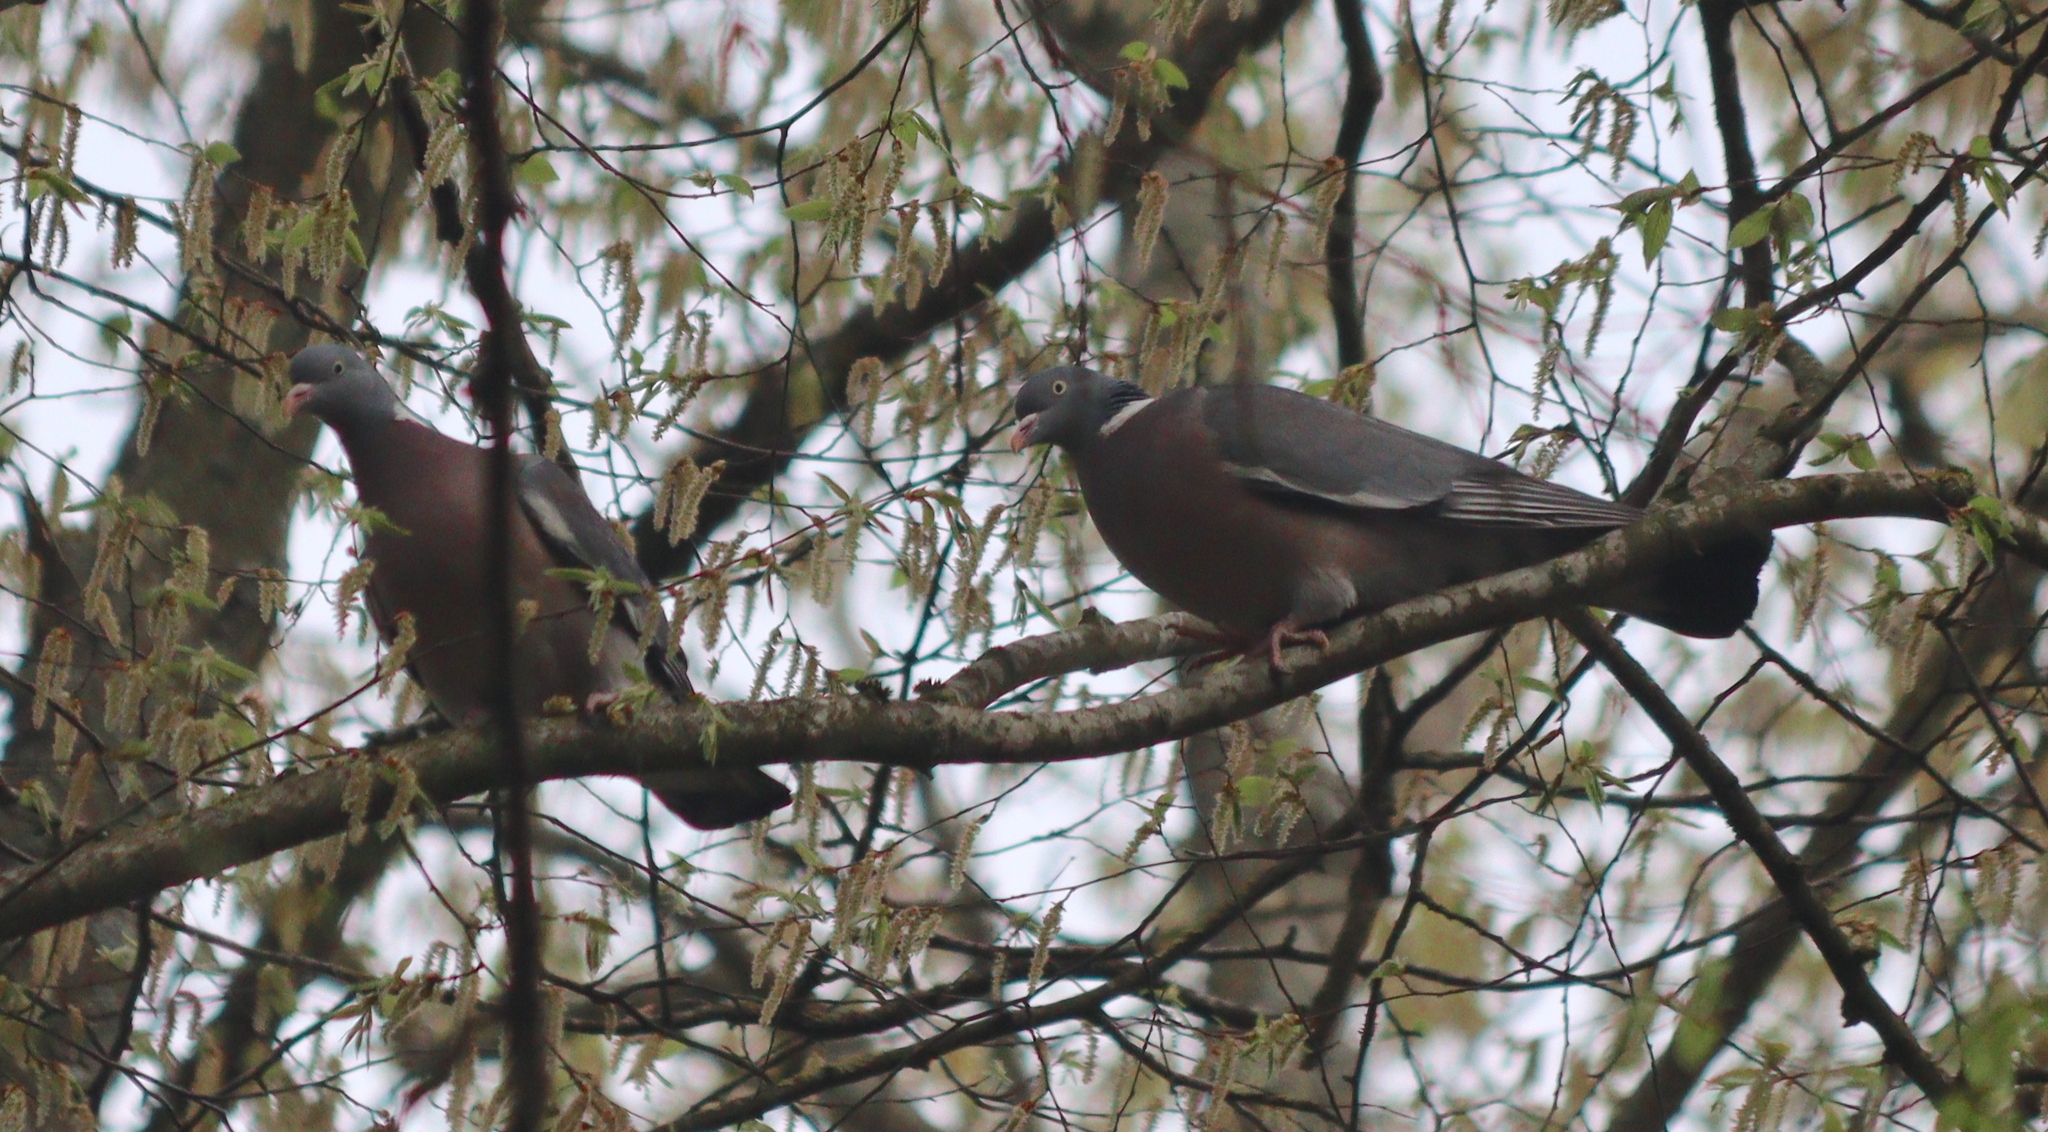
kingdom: Animalia
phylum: Chordata
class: Aves
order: Columbiformes
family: Columbidae
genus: Columba
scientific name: Columba palumbus
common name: Common wood pigeon
